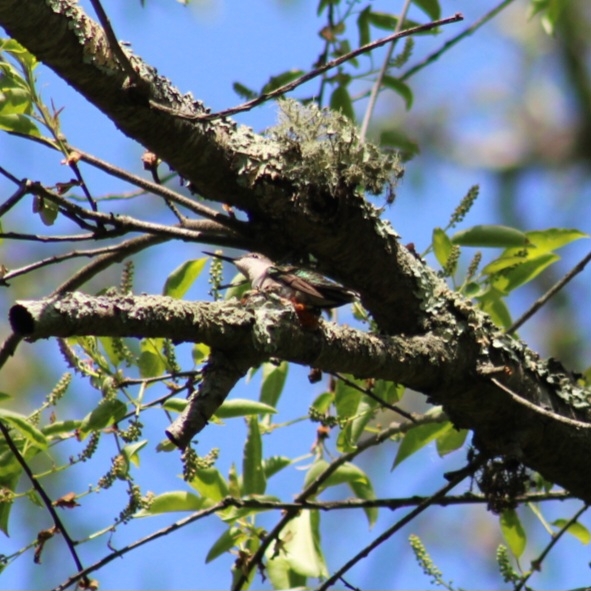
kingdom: Animalia
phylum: Chordata
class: Aves
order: Apodiformes
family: Trochilidae
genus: Archilochus
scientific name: Archilochus colubris
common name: Ruby-throated hummingbird
